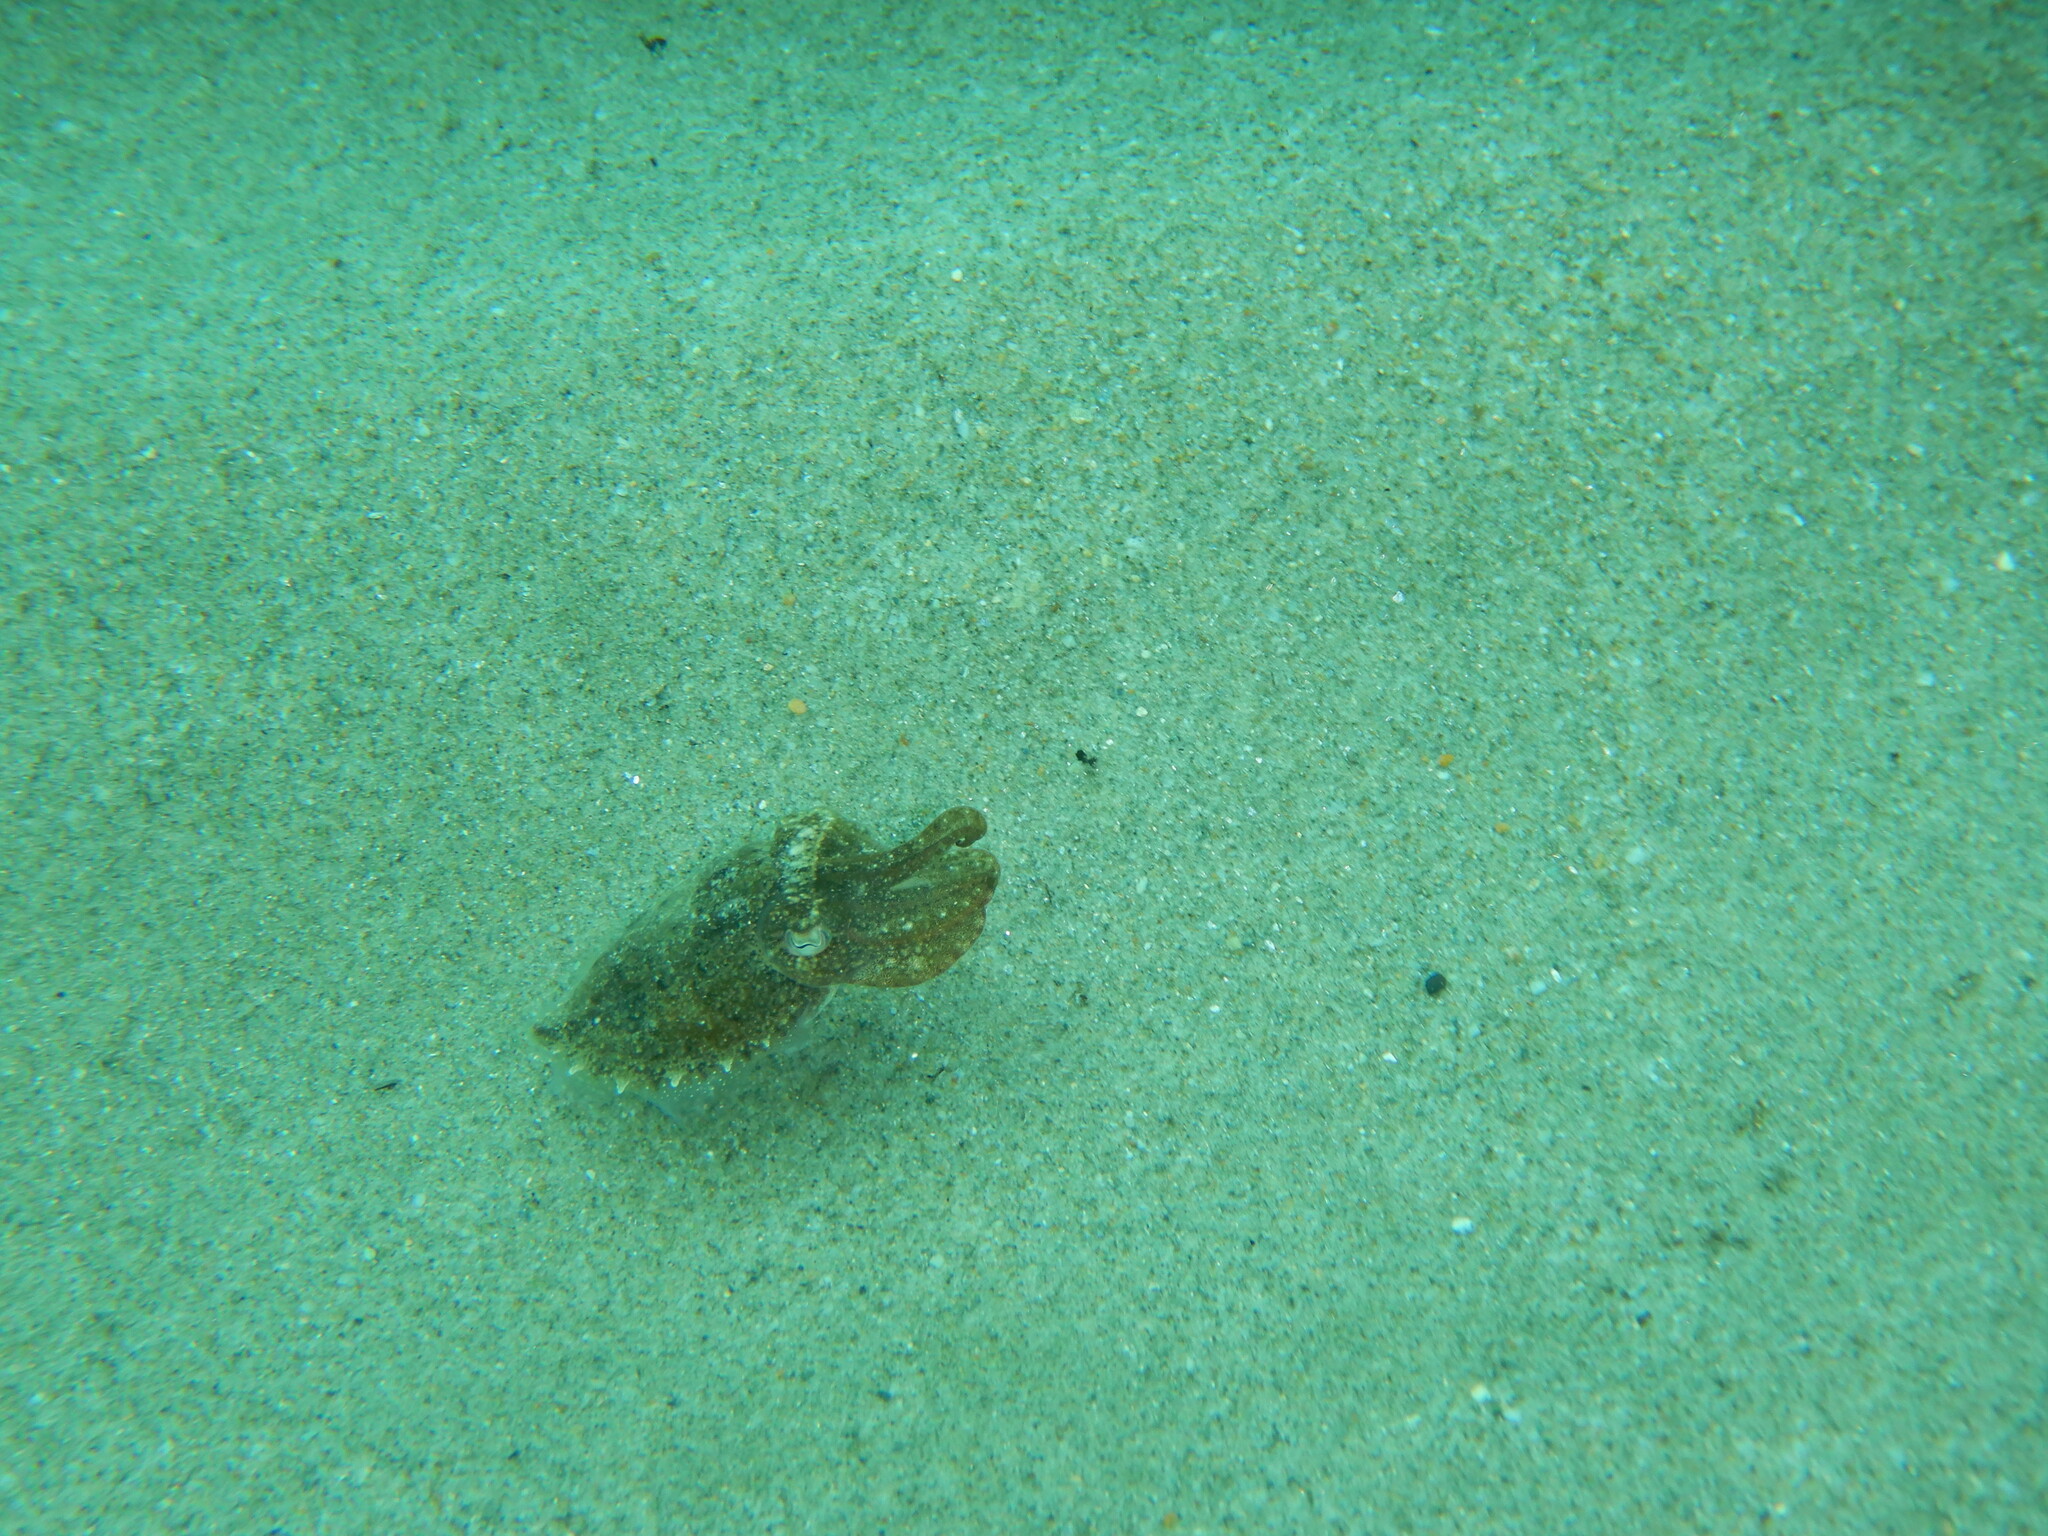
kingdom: Animalia
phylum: Mollusca
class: Cephalopoda
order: Sepiida
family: Sepiidae
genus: Sepia
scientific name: Sepia officinalis
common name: Common cuttlefish
